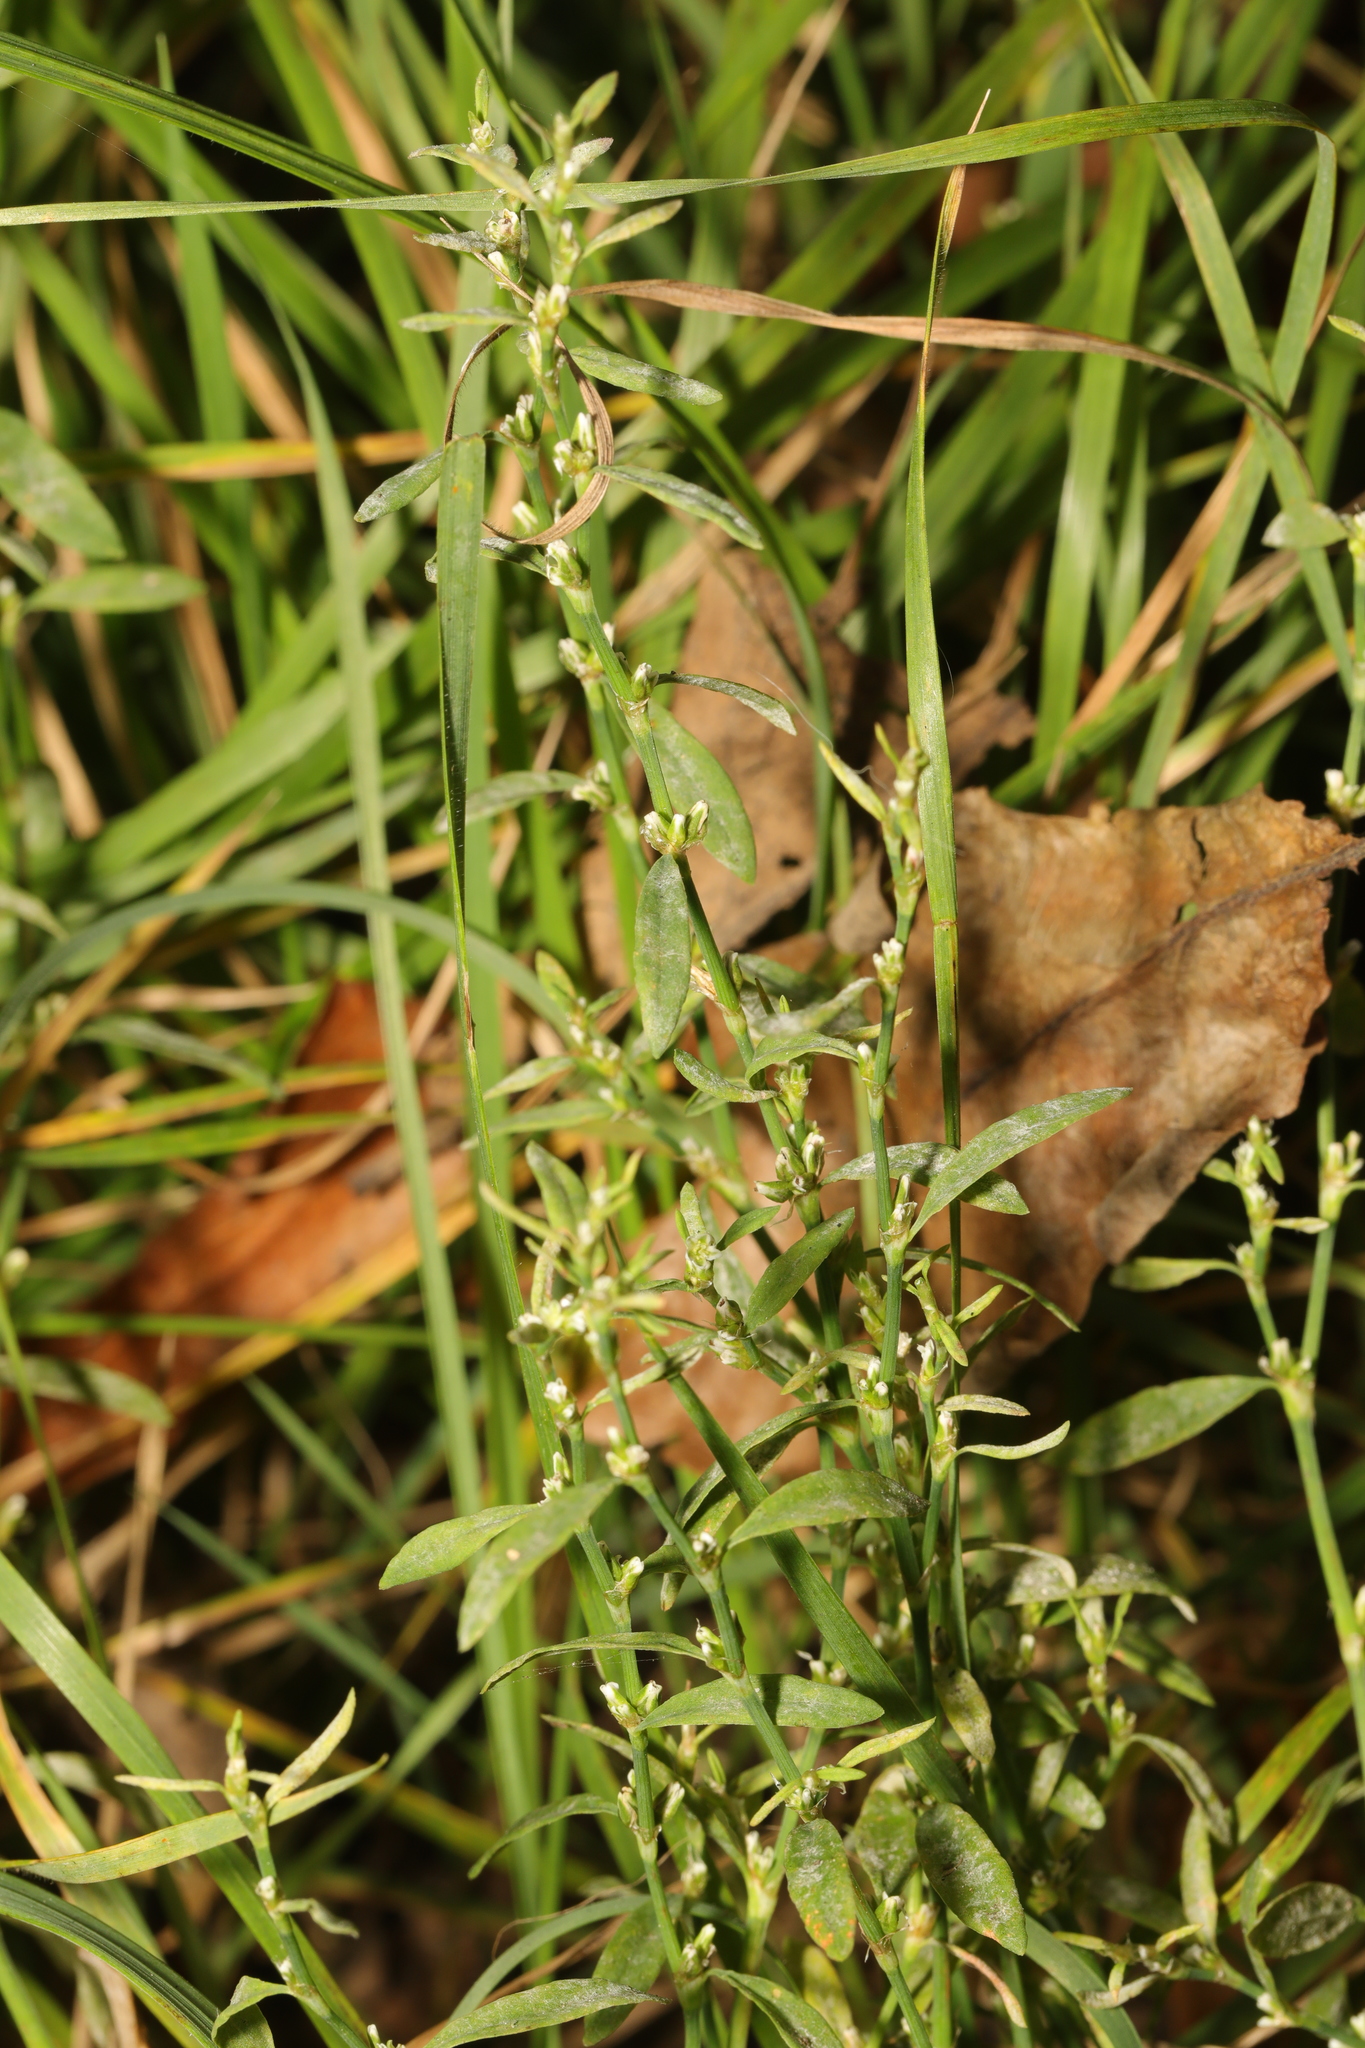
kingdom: Plantae
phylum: Tracheophyta
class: Magnoliopsida
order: Caryophyllales
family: Polygonaceae
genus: Polygonum
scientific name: Polygonum aviculare
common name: Prostrate knotweed
